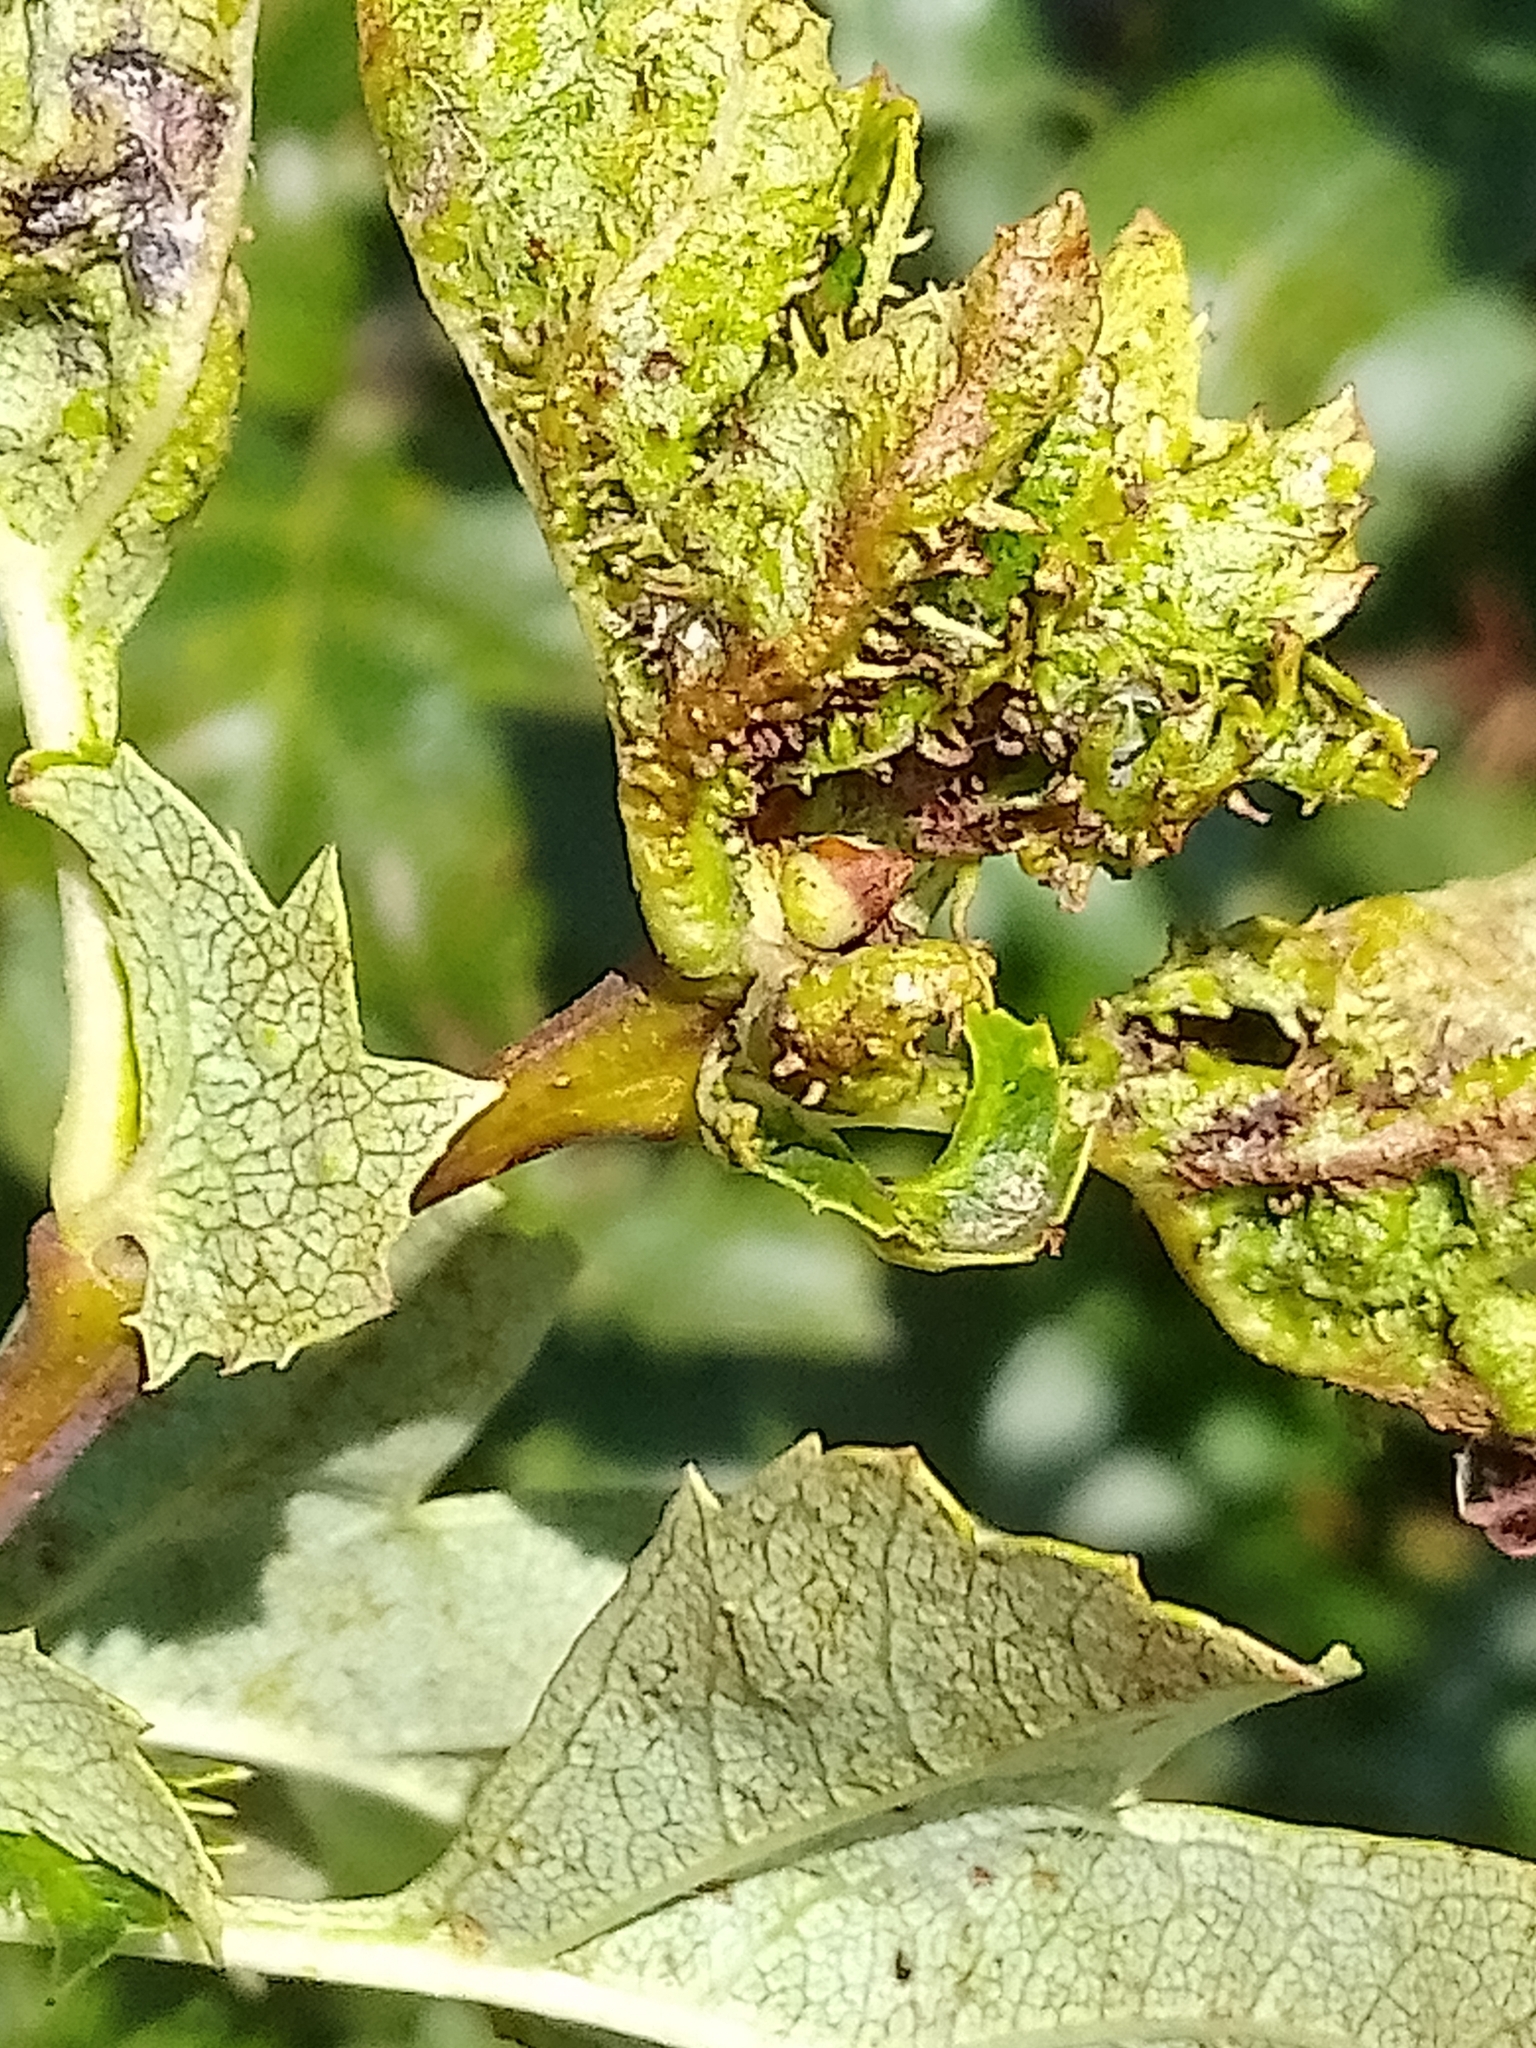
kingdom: Animalia
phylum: Arthropoda
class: Insecta
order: Diptera
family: Cecidomyiidae
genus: Dasineura
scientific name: Dasineura crataegi
